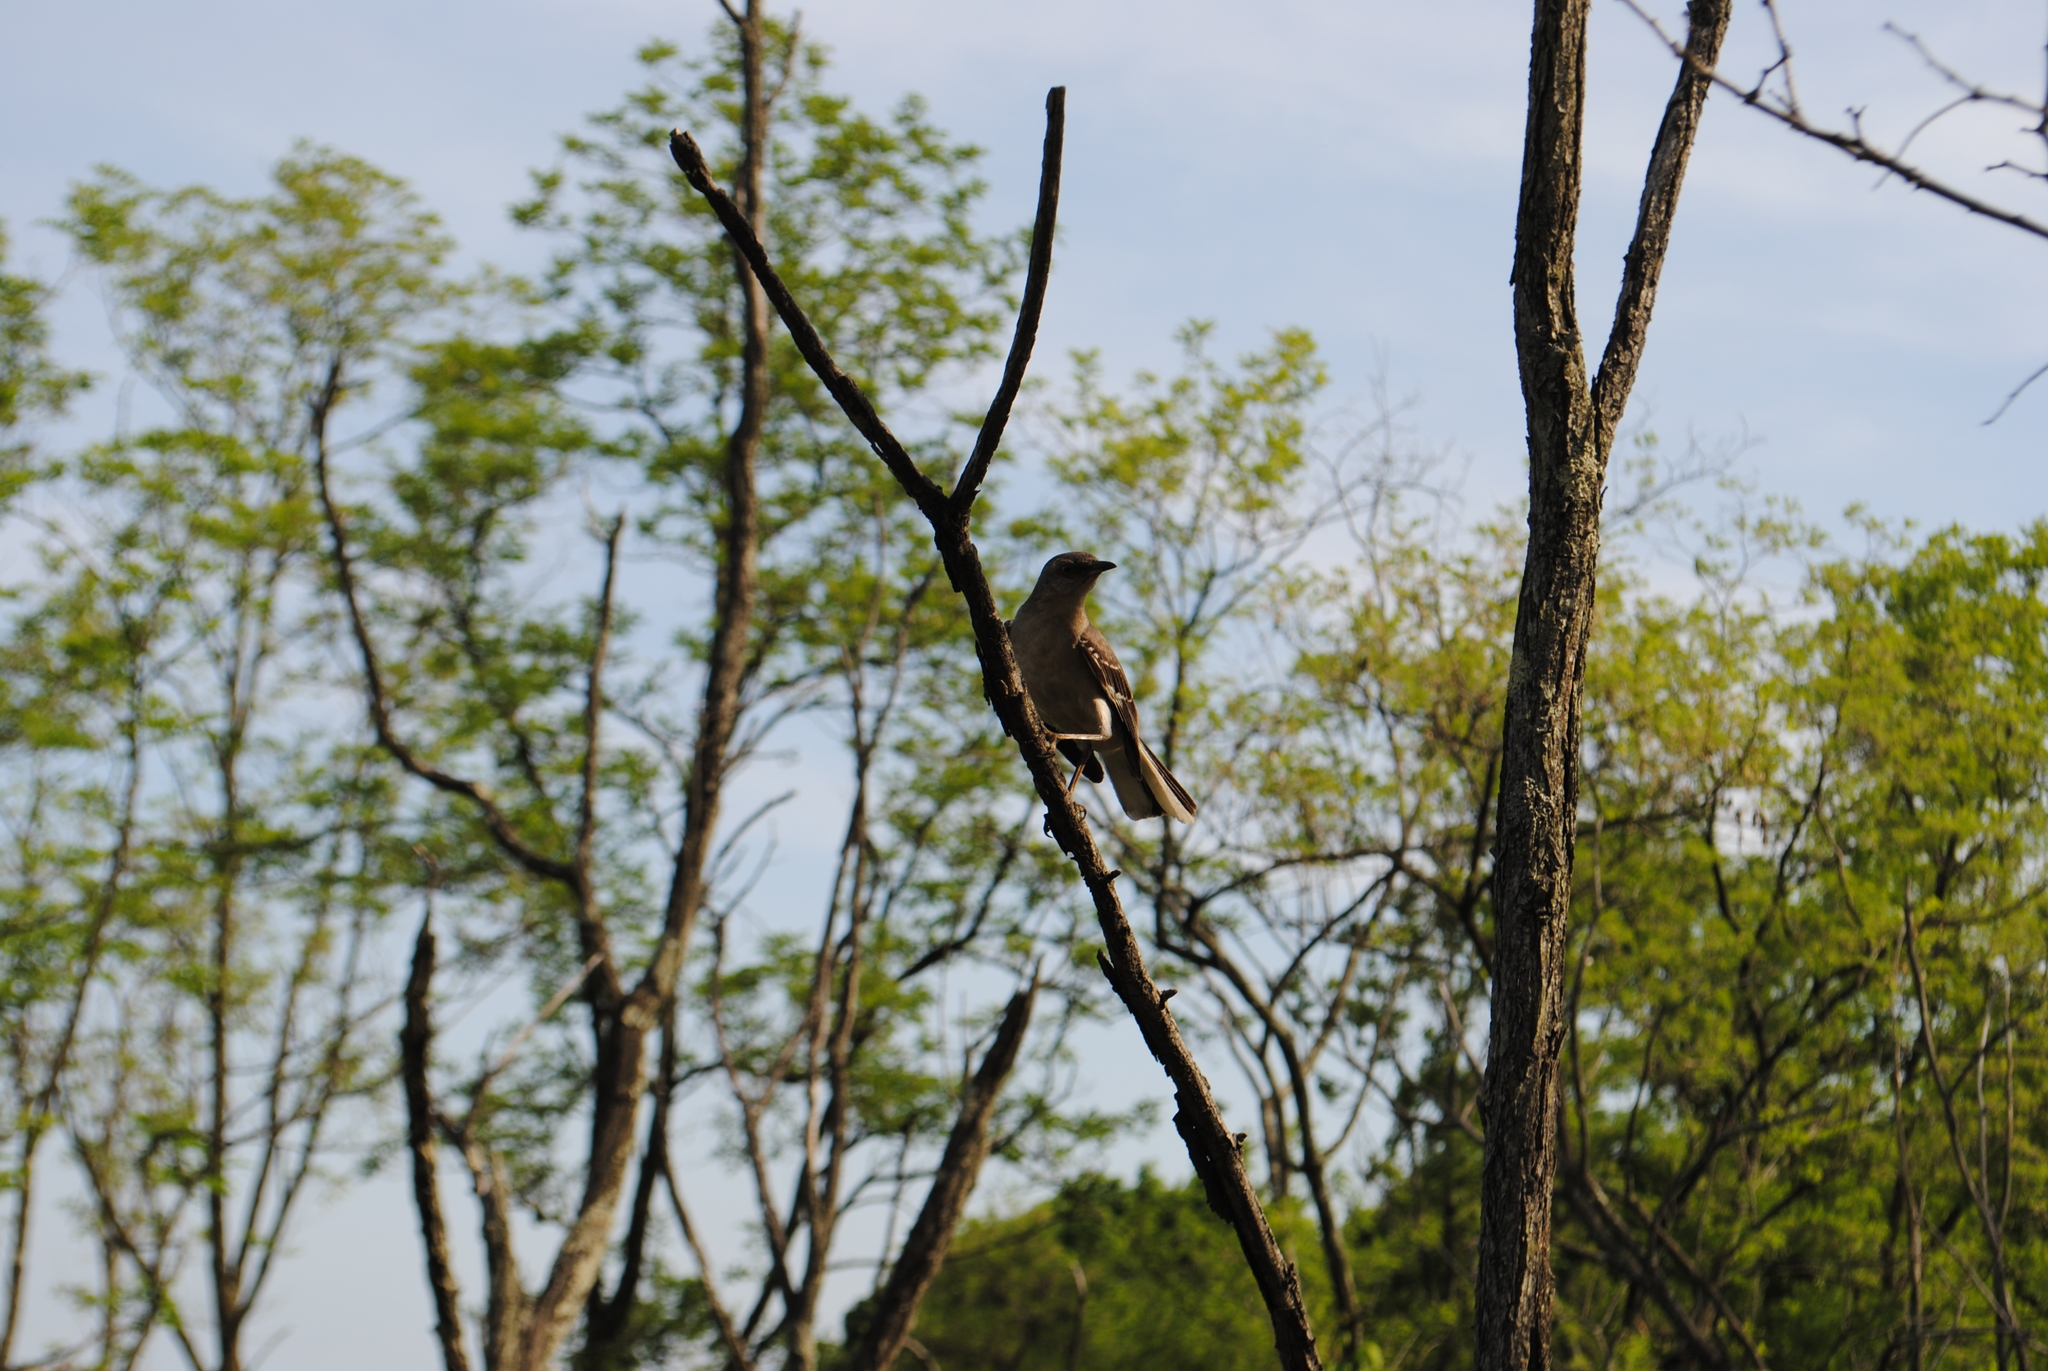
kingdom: Animalia
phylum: Chordata
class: Aves
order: Passeriformes
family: Mimidae
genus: Mimus
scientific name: Mimus polyglottos
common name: Northern mockingbird
